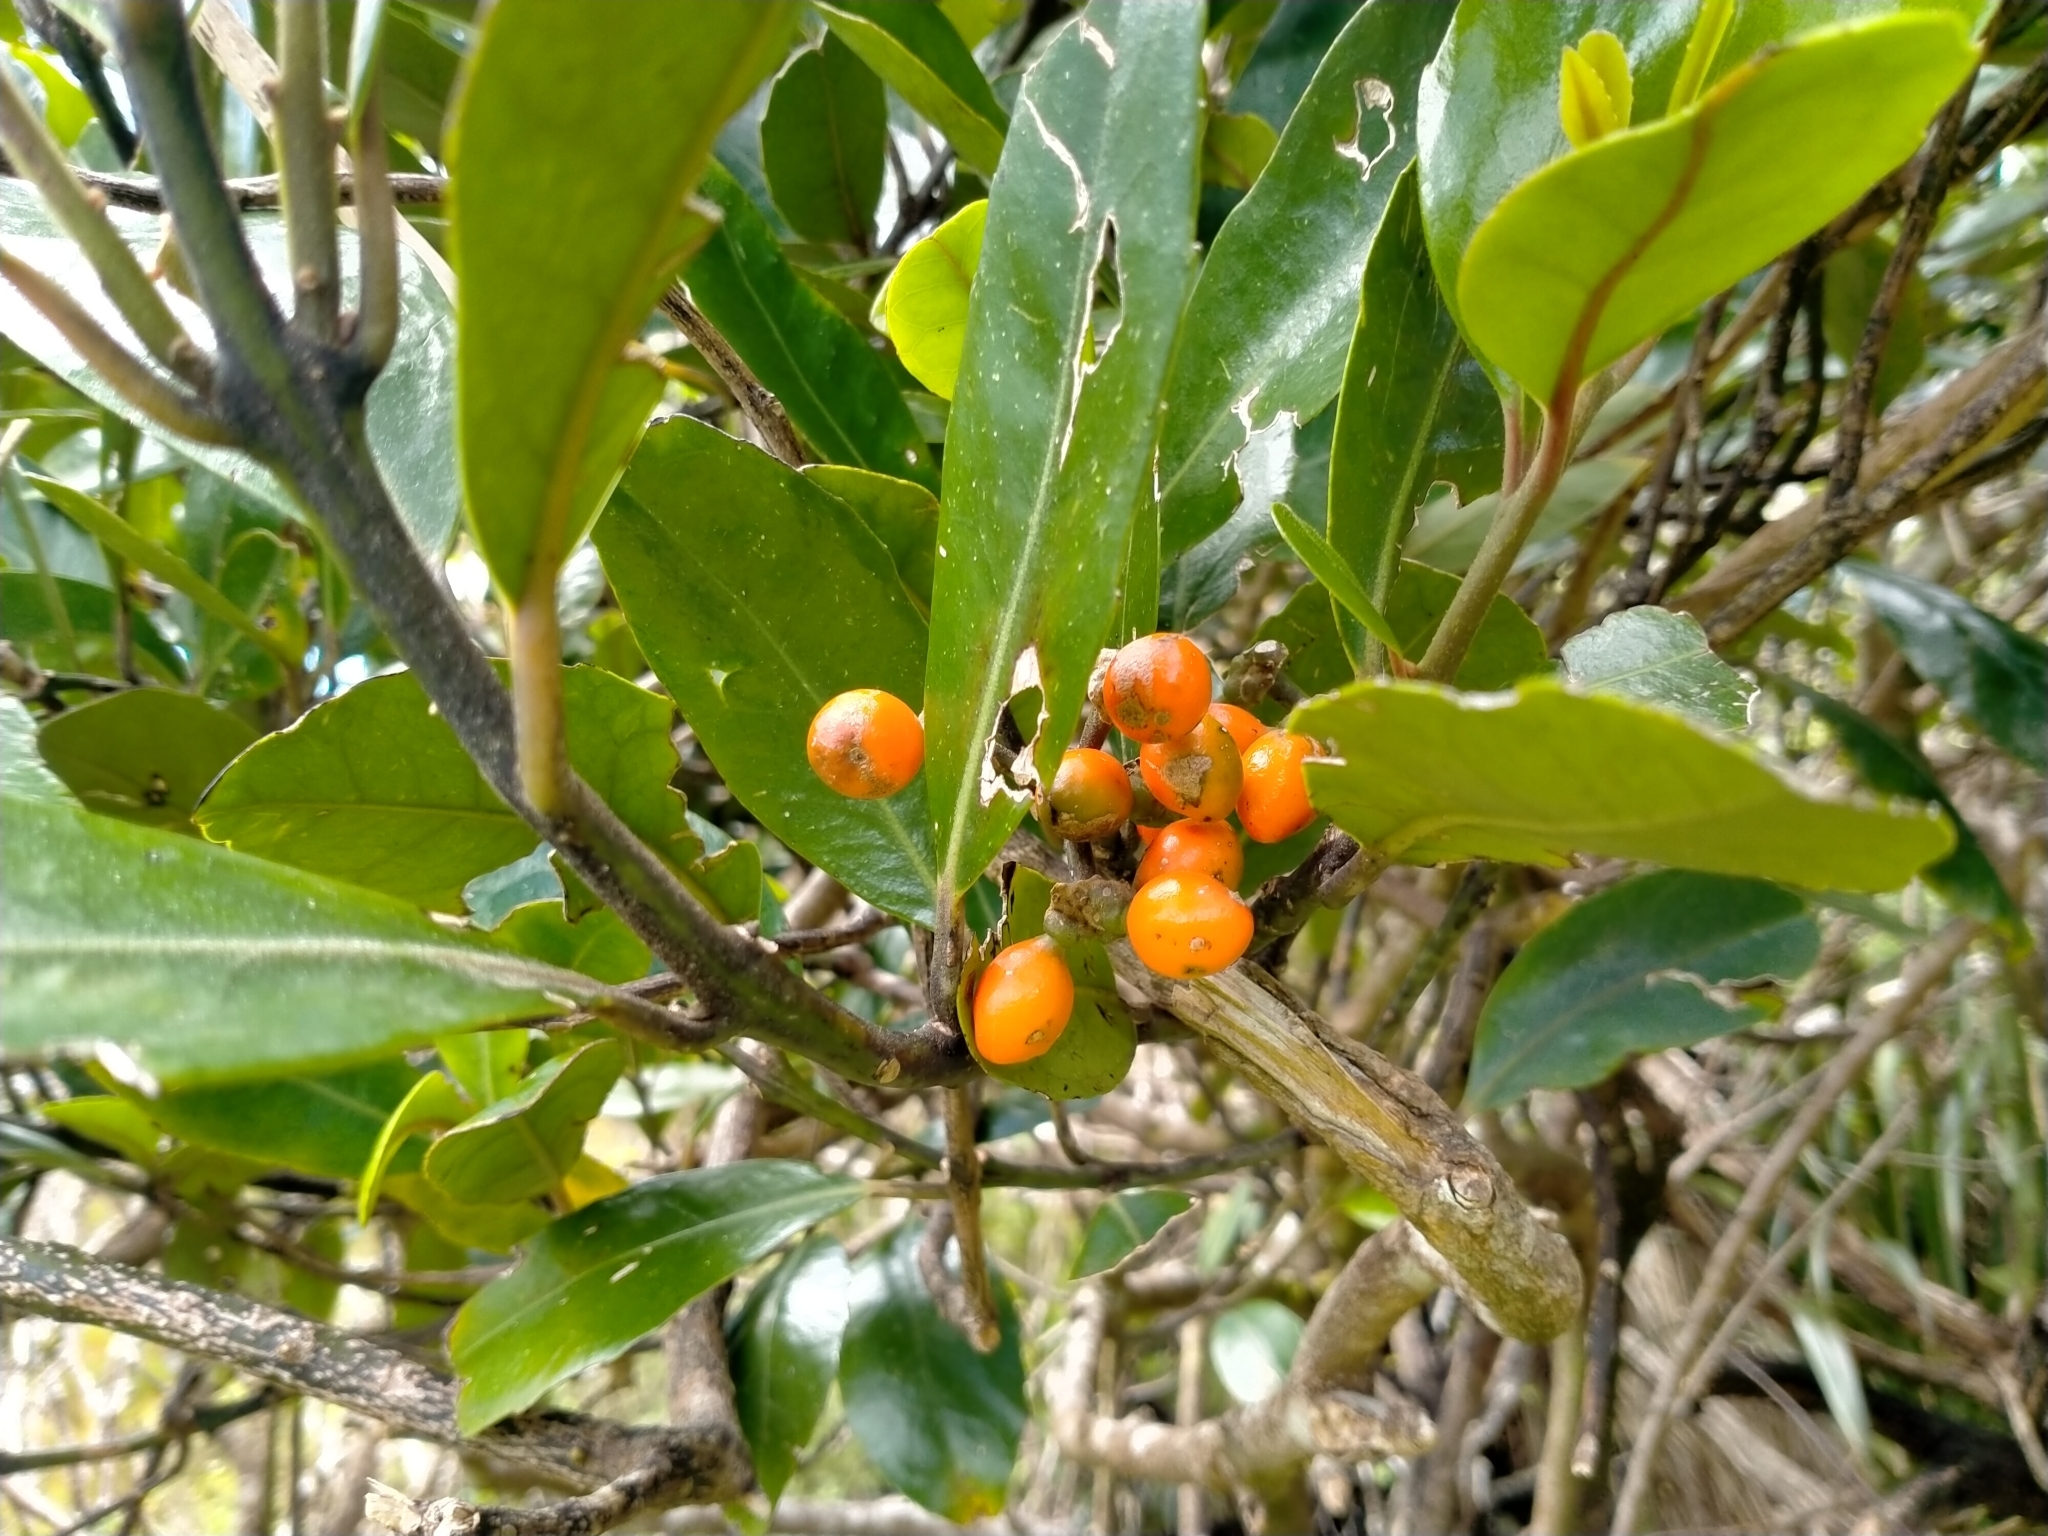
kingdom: Plantae
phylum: Tracheophyta
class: Magnoliopsida
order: Laurales
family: Monimiaceae
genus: Hedycarya
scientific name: Hedycarya arborea
